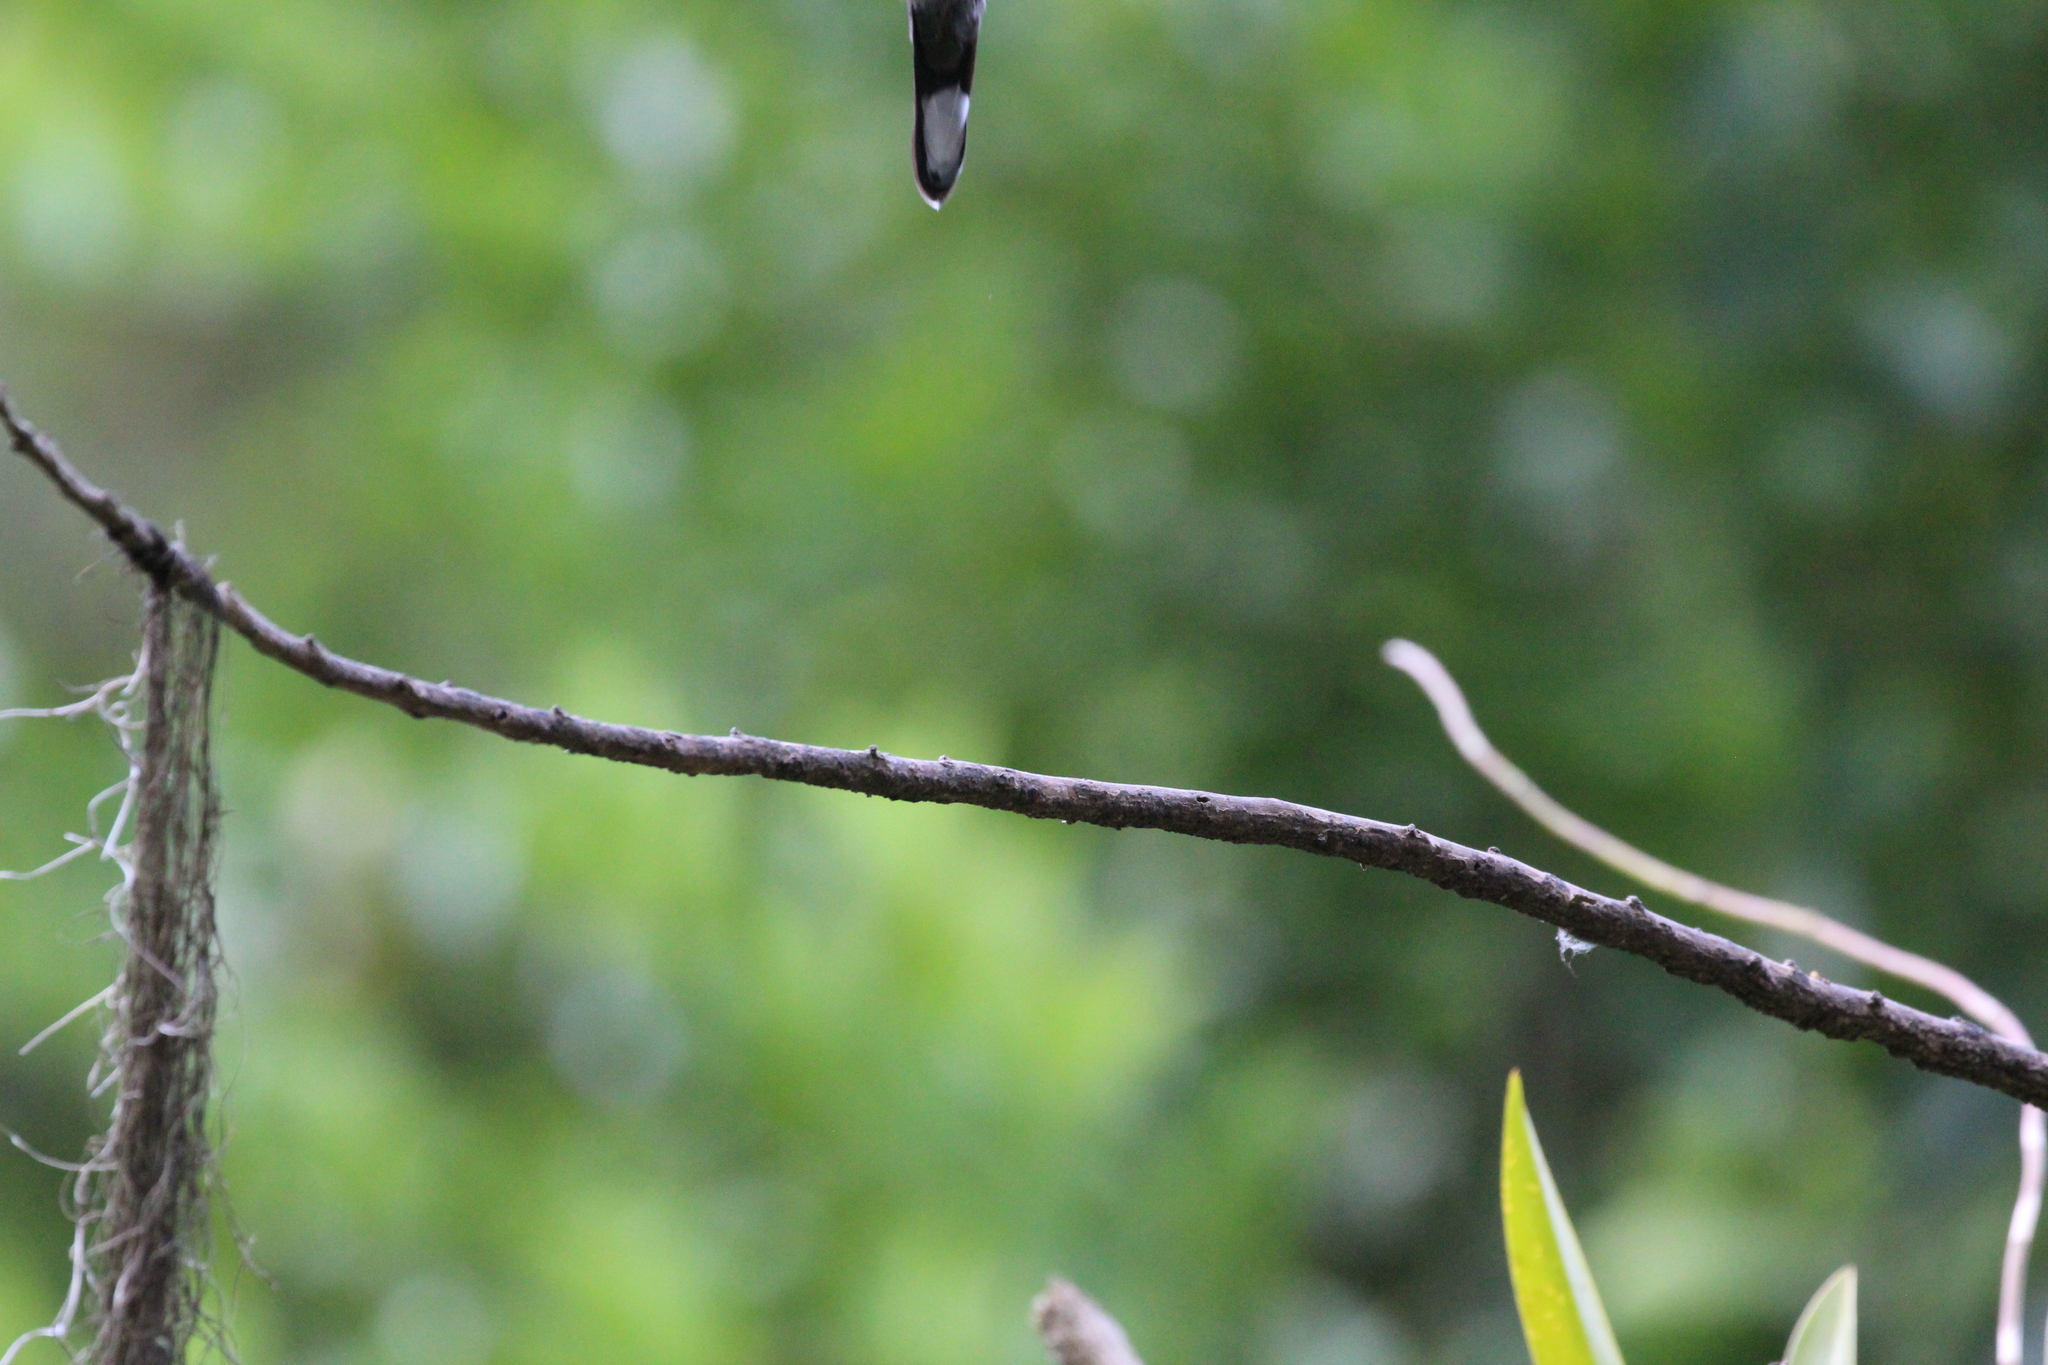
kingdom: Animalia
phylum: Chordata
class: Aves
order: Apodiformes
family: Trochilidae
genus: Campylopterus
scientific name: Campylopterus hemileucurus
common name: Violet sabrewing
